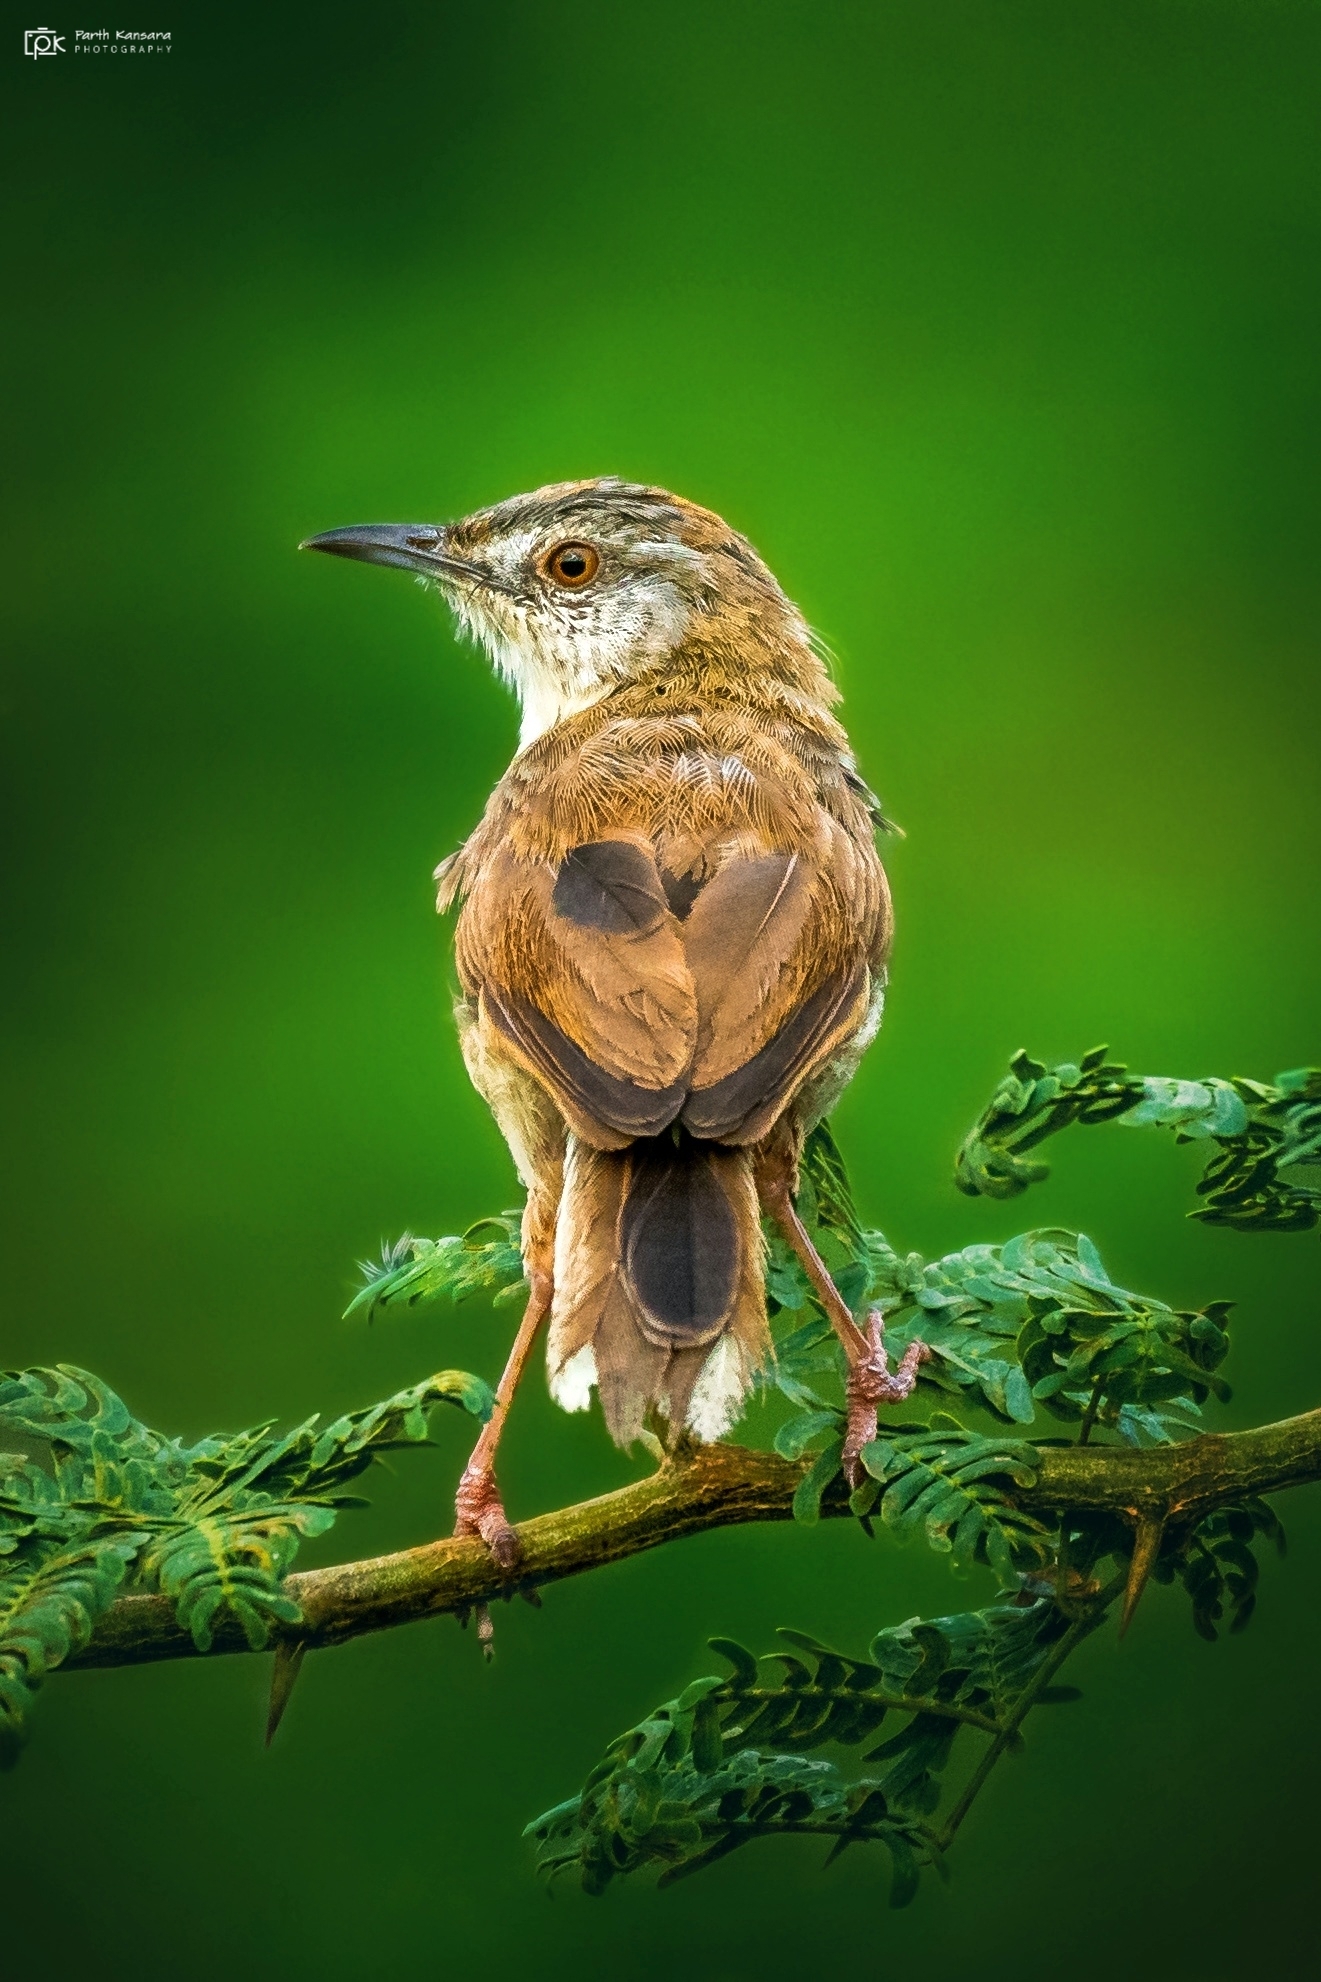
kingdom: Animalia
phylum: Chordata
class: Aves
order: Passeriformes
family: Cisticolidae
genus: Prinia
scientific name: Prinia inornata
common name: Plain prinia
